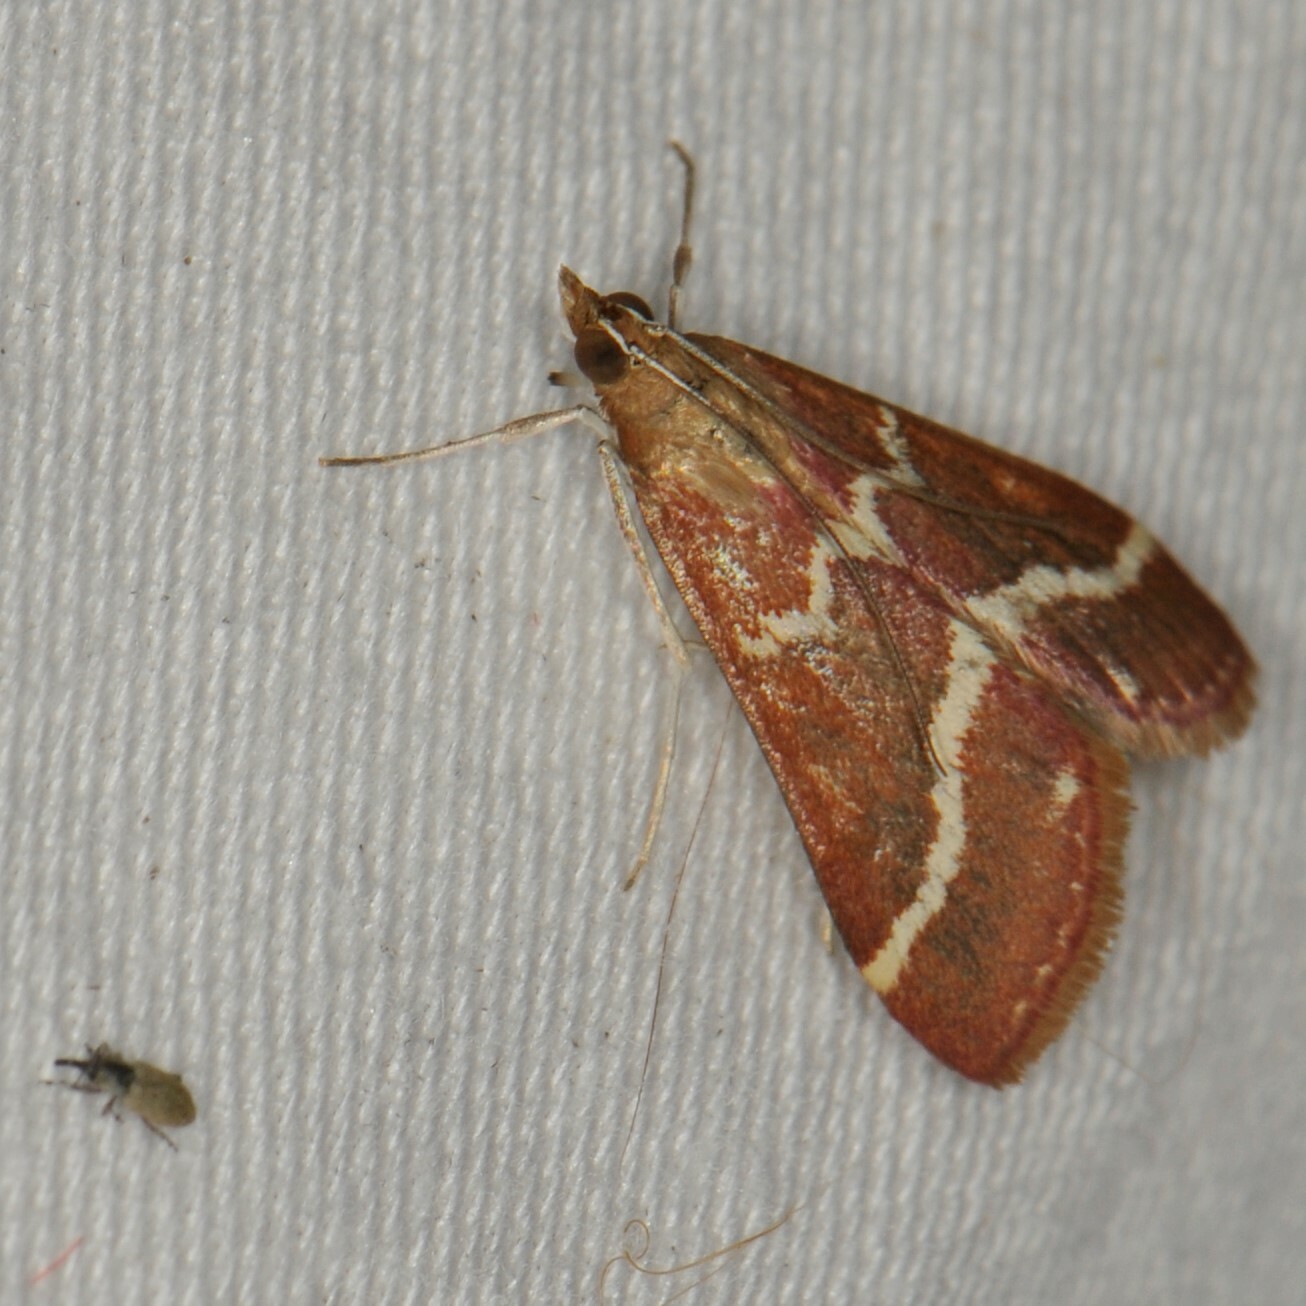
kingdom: Animalia
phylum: Arthropoda
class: Insecta
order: Lepidoptera
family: Crambidae
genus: Pyrausta
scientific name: Pyrausta volupialis
